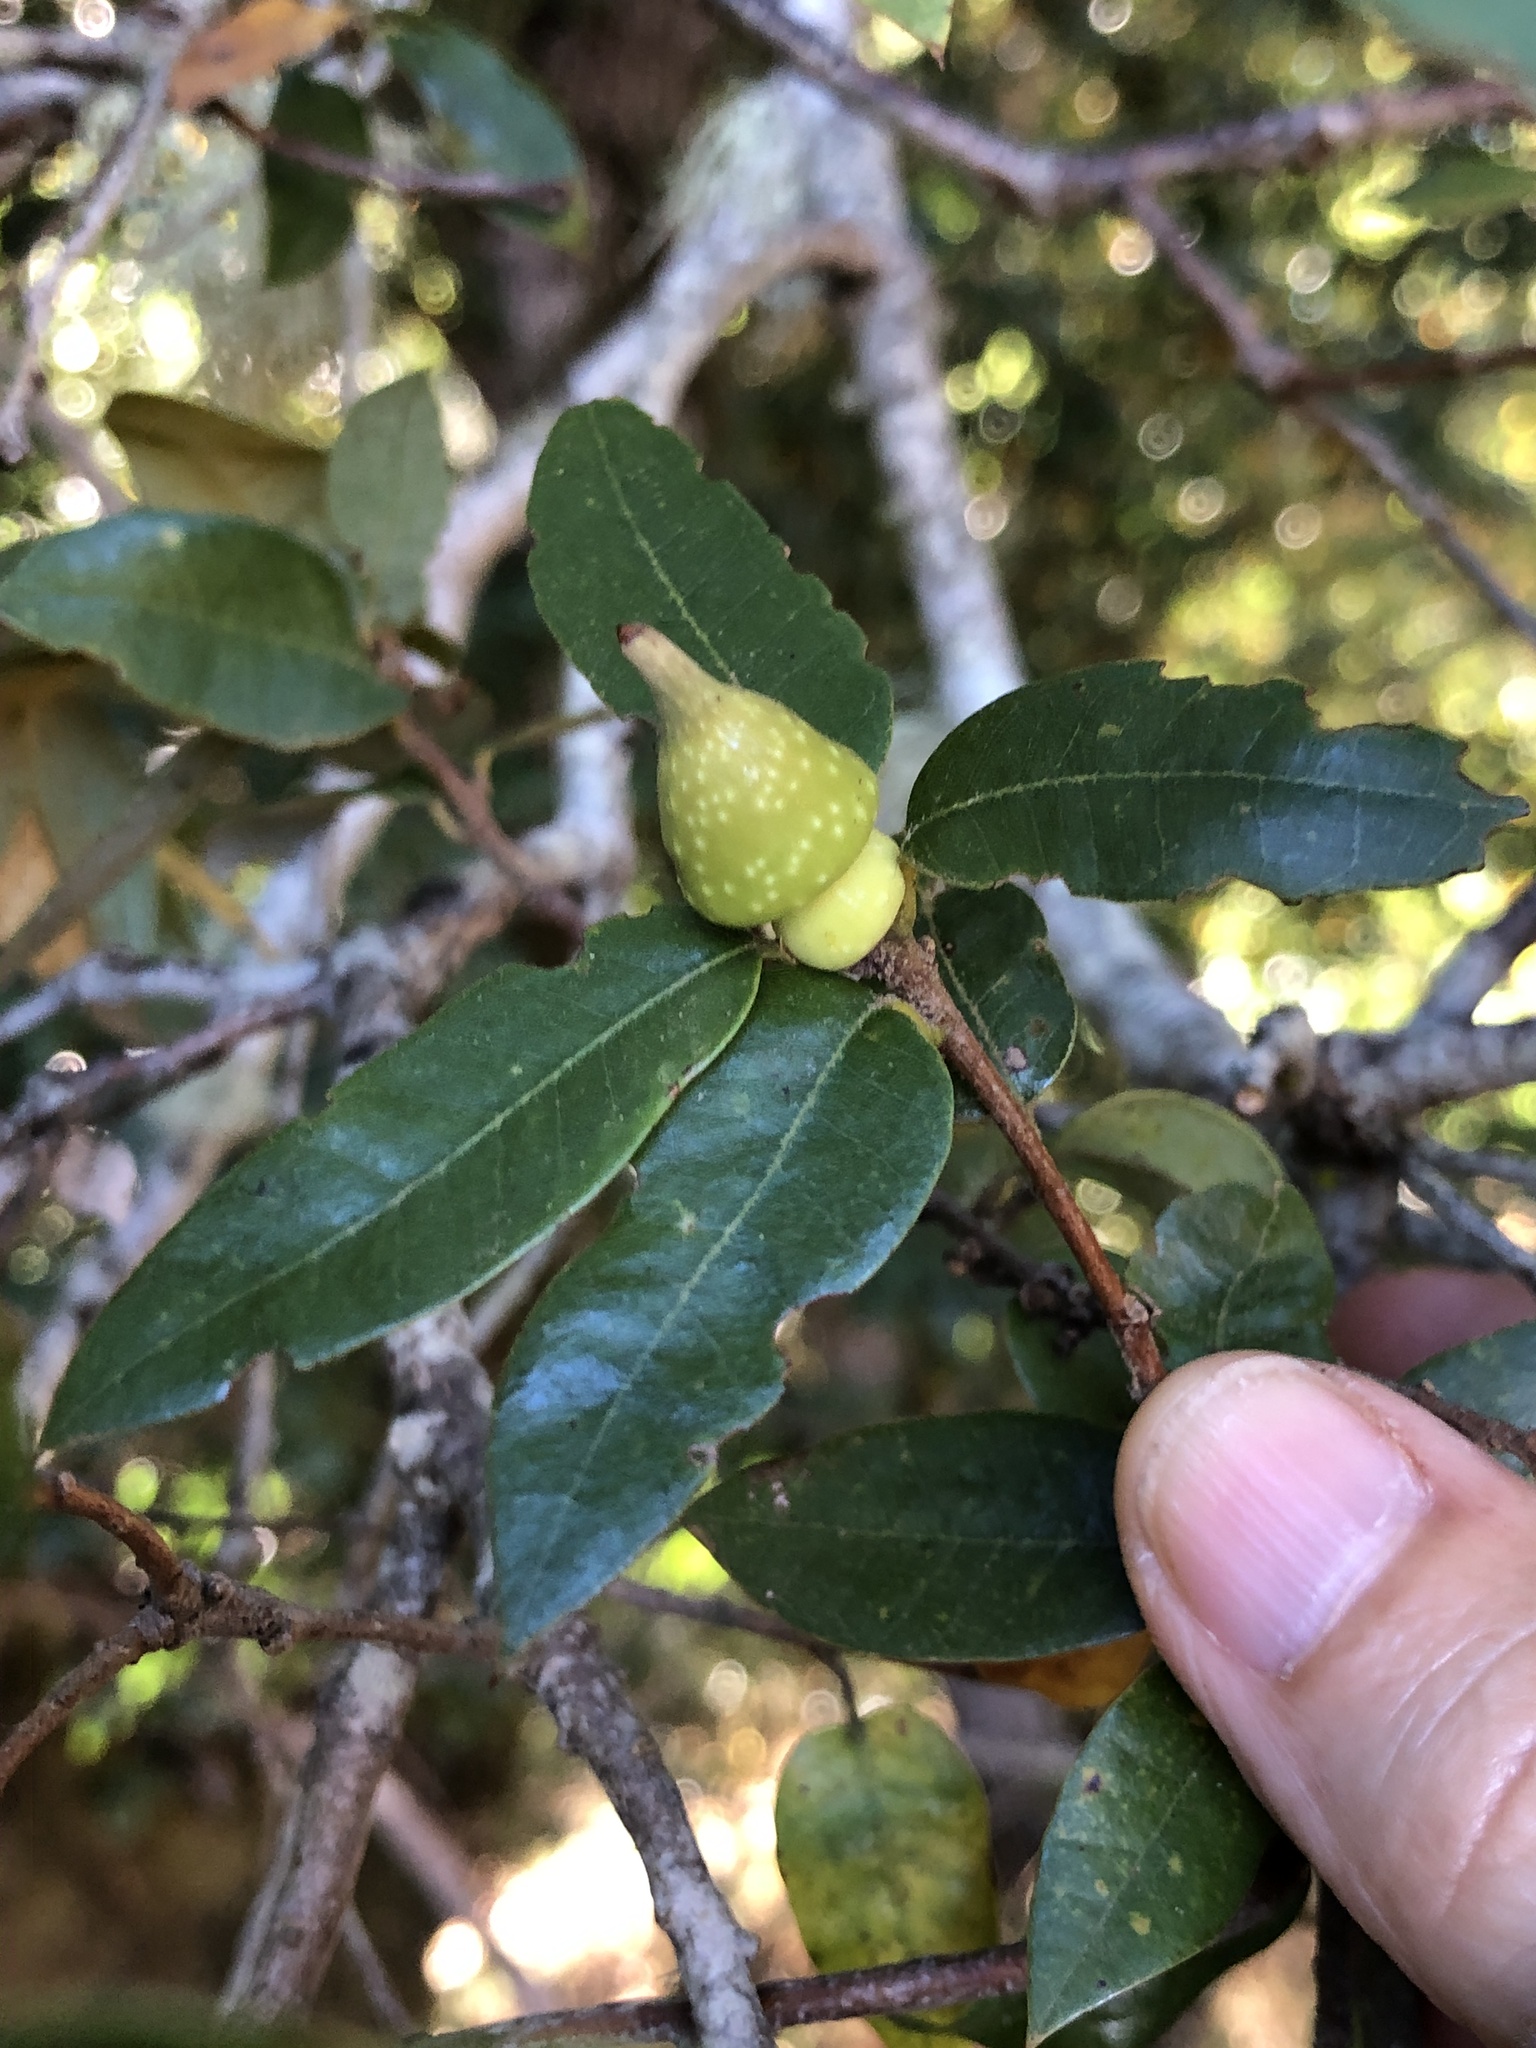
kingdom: Animalia
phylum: Arthropoda
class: Insecta
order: Hymenoptera
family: Cynipidae
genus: Heteroecus
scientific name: Heteroecus
